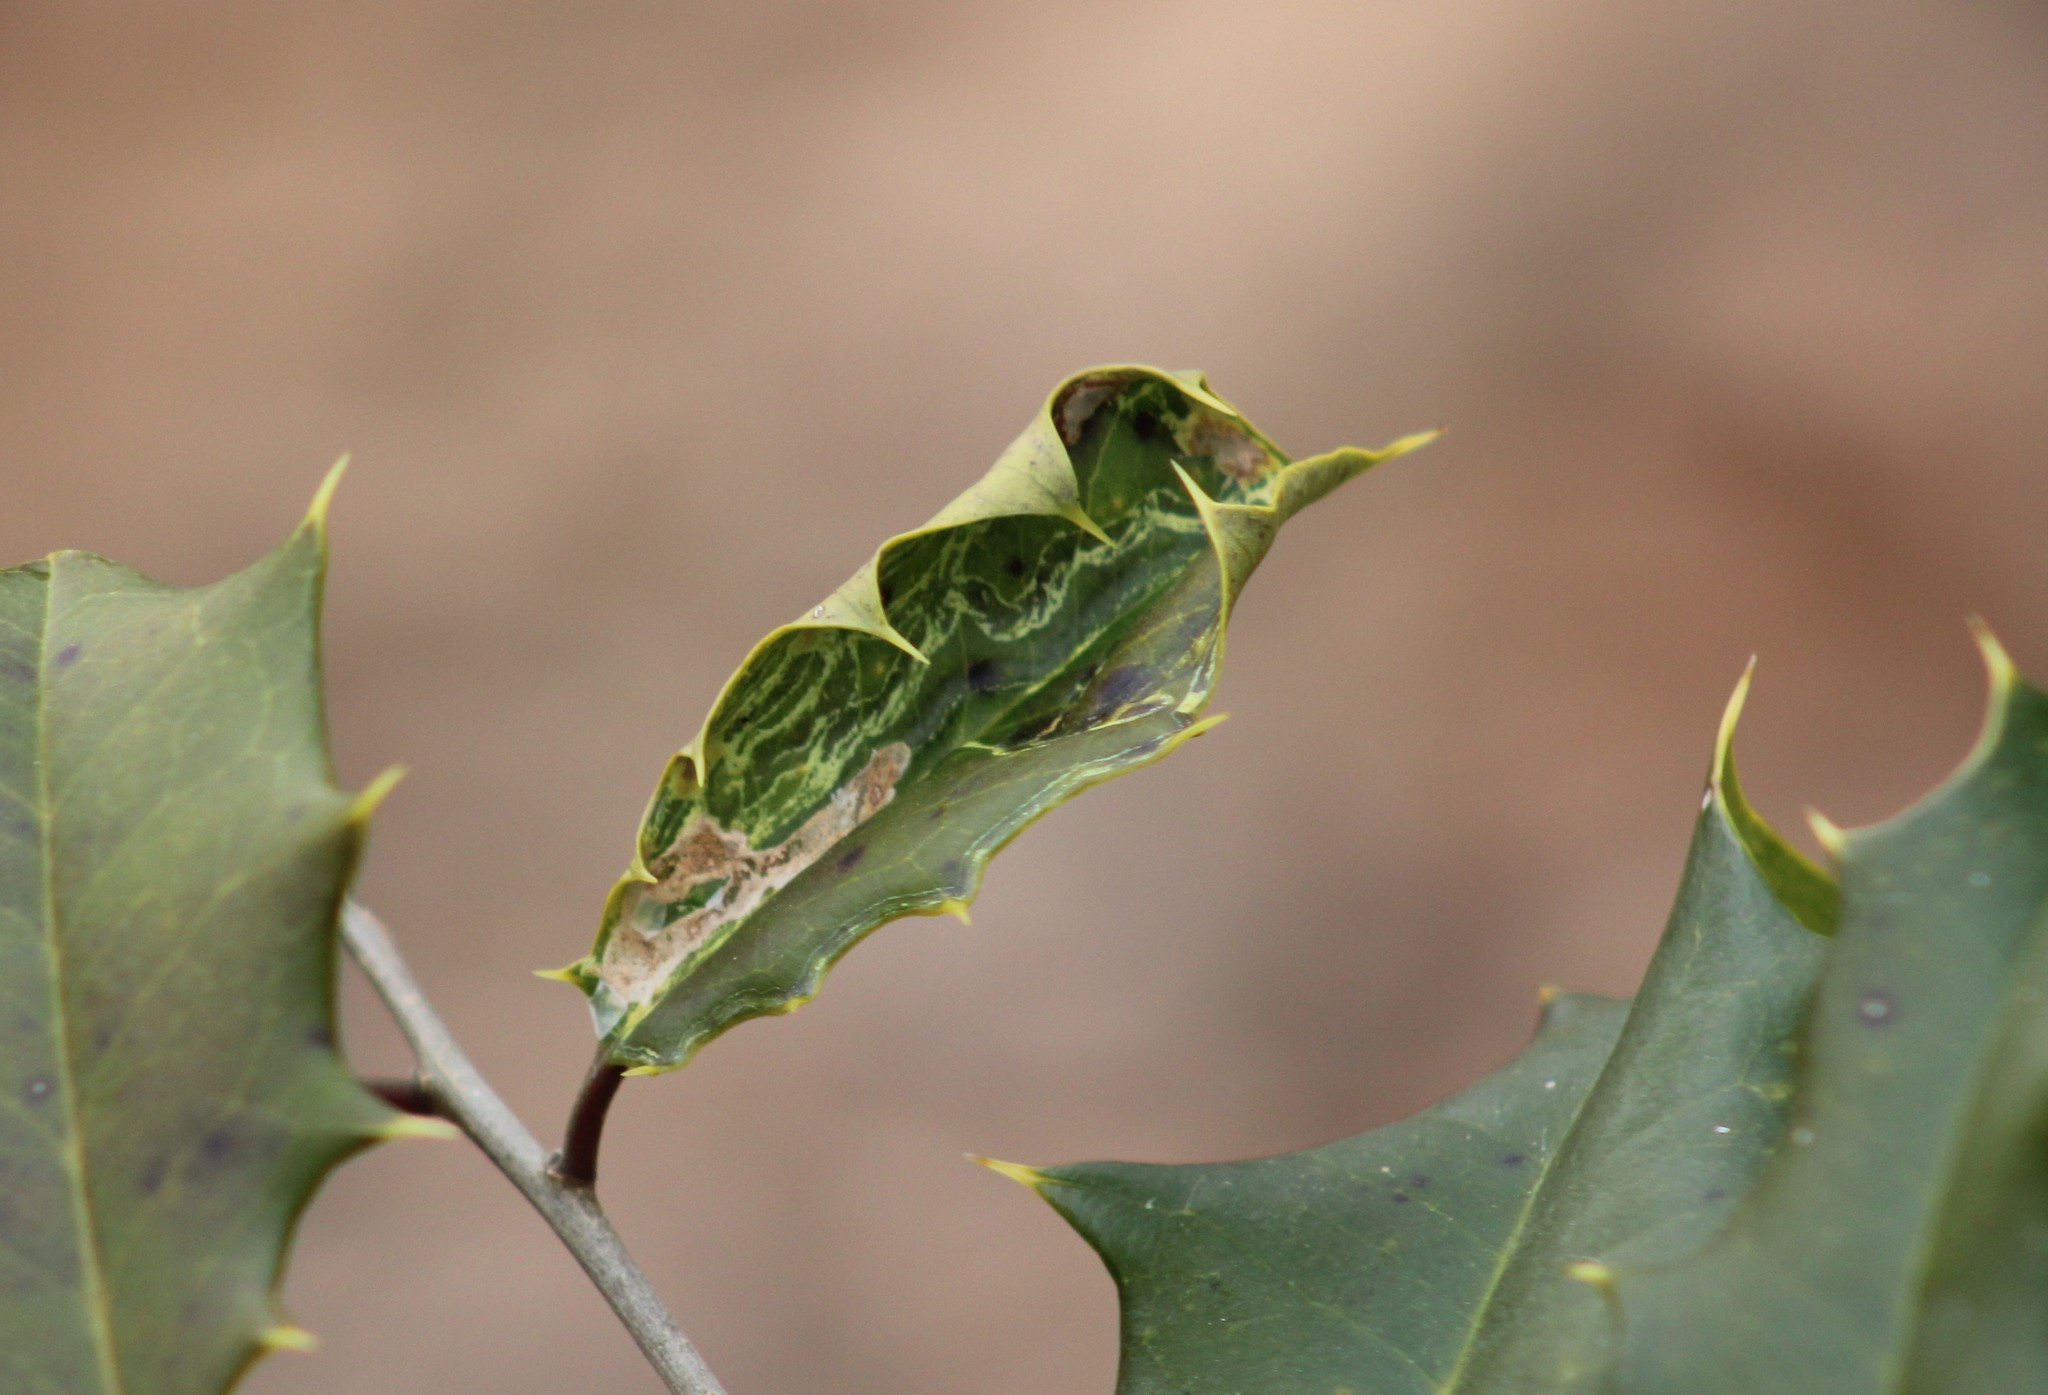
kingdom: Animalia
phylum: Arthropoda
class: Insecta
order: Diptera
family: Agromyzidae
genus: Phytomyza
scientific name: Phytomyza opacae
